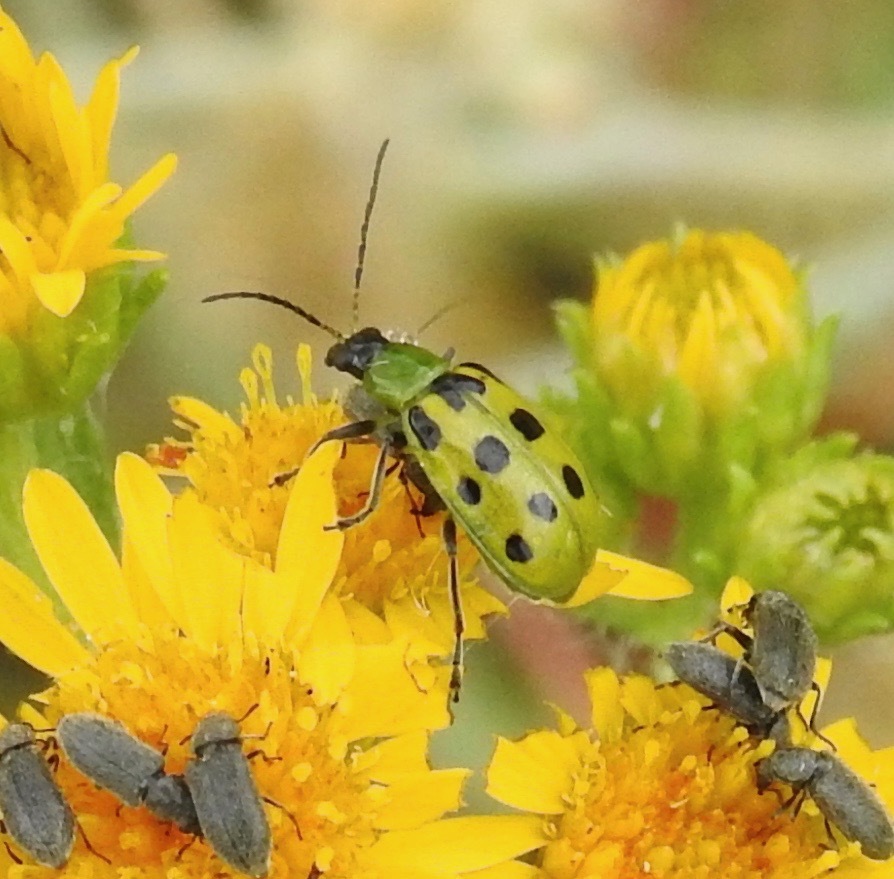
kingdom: Animalia
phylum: Arthropoda
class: Insecta
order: Coleoptera
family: Chrysomelidae
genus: Diabrotica
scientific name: Diabrotica undecimpunctata
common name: Spotted cucumber beetle
